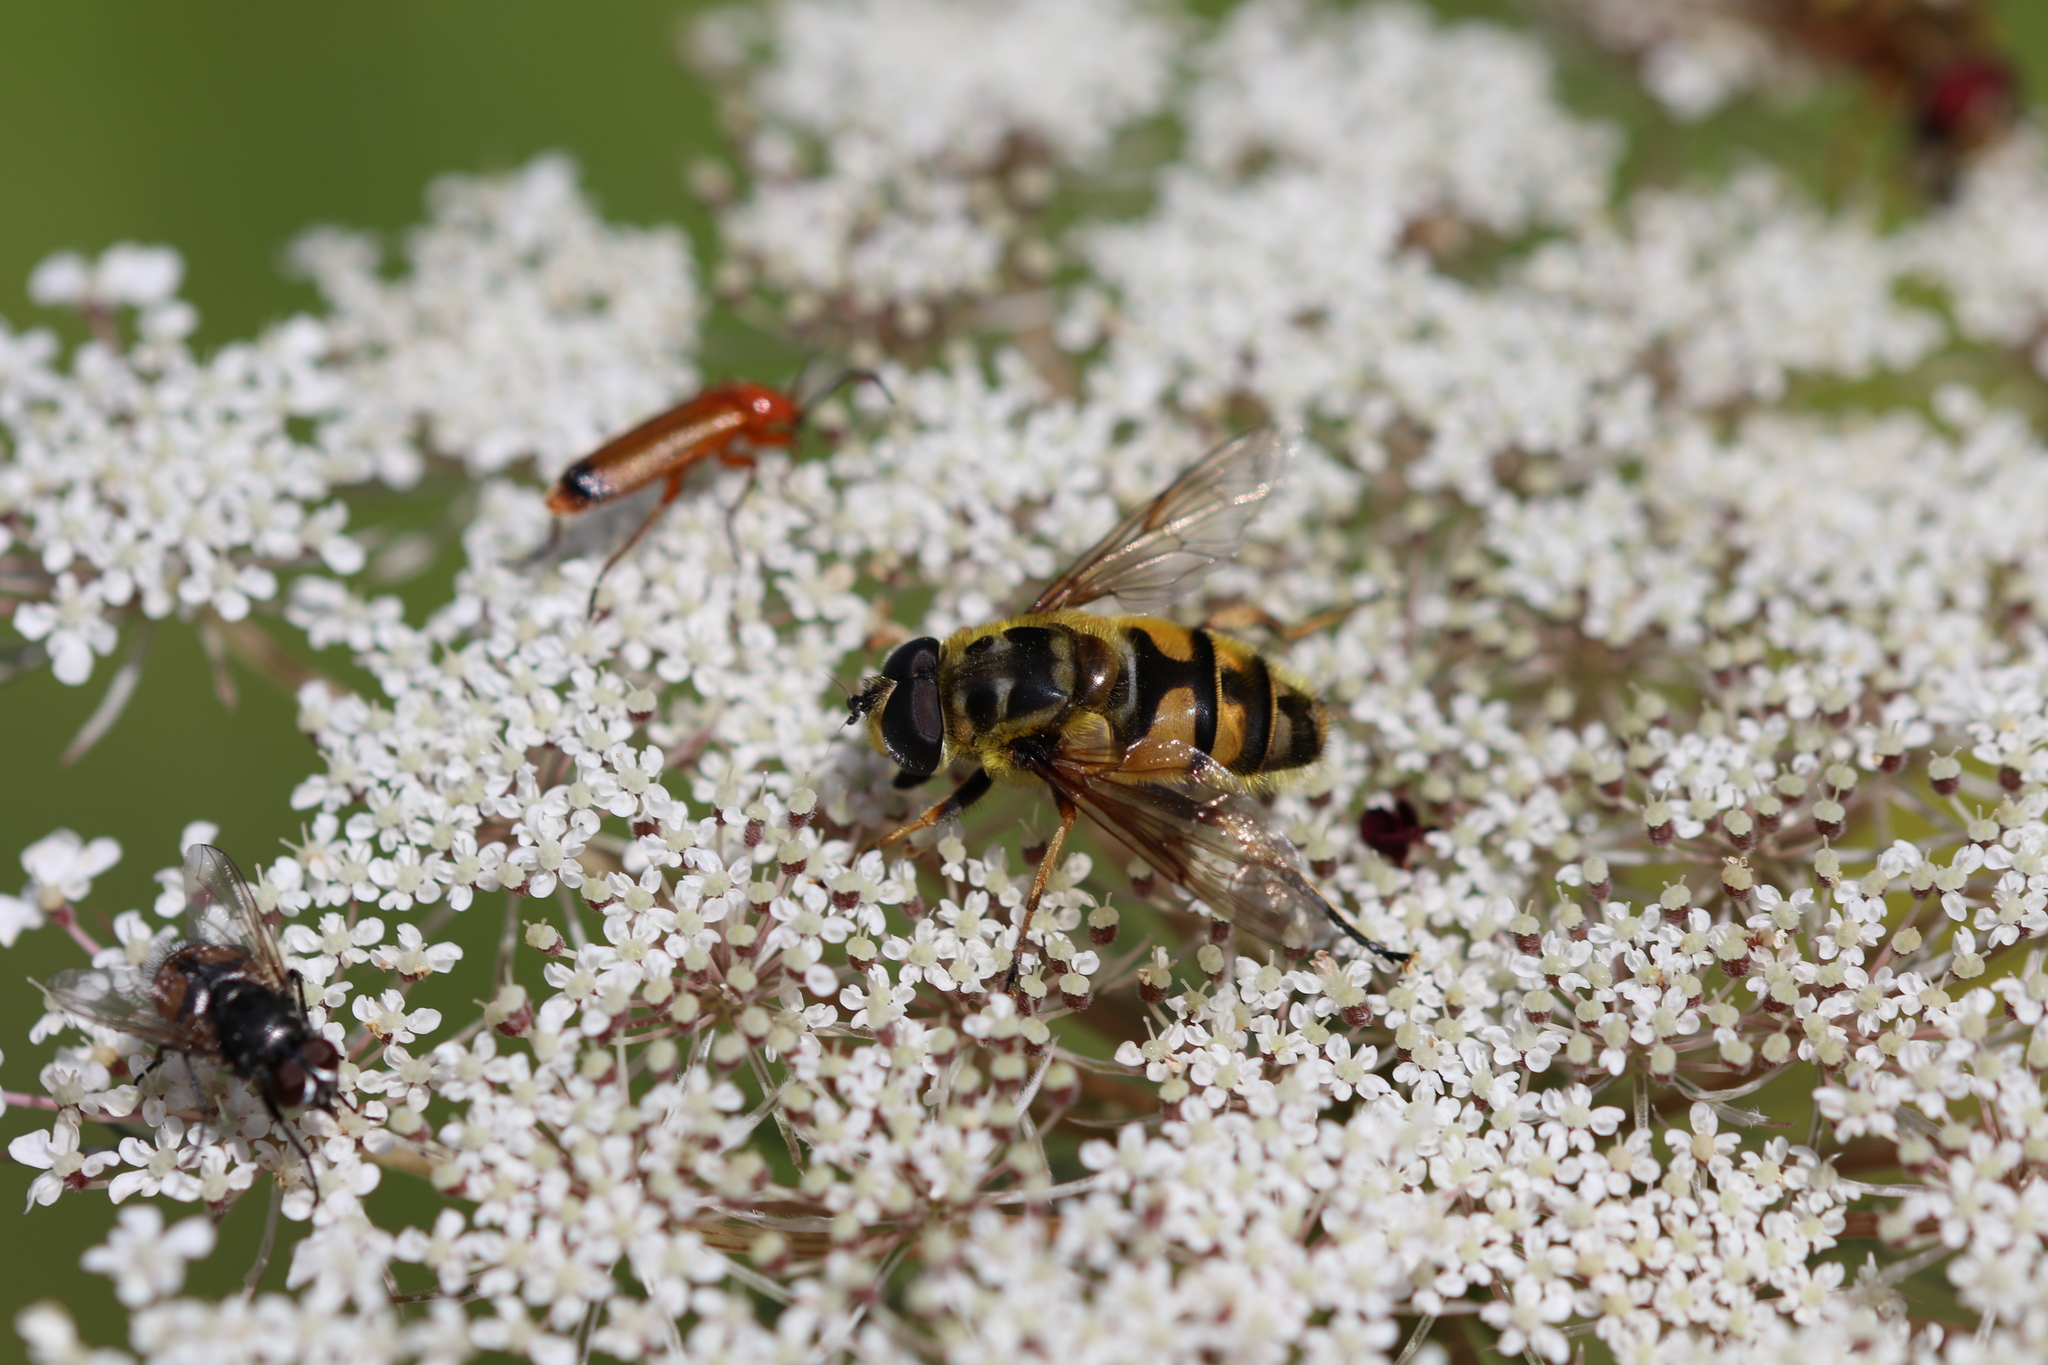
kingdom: Animalia
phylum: Arthropoda
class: Insecta
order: Diptera
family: Syrphidae
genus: Myathropa
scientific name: Myathropa florea
